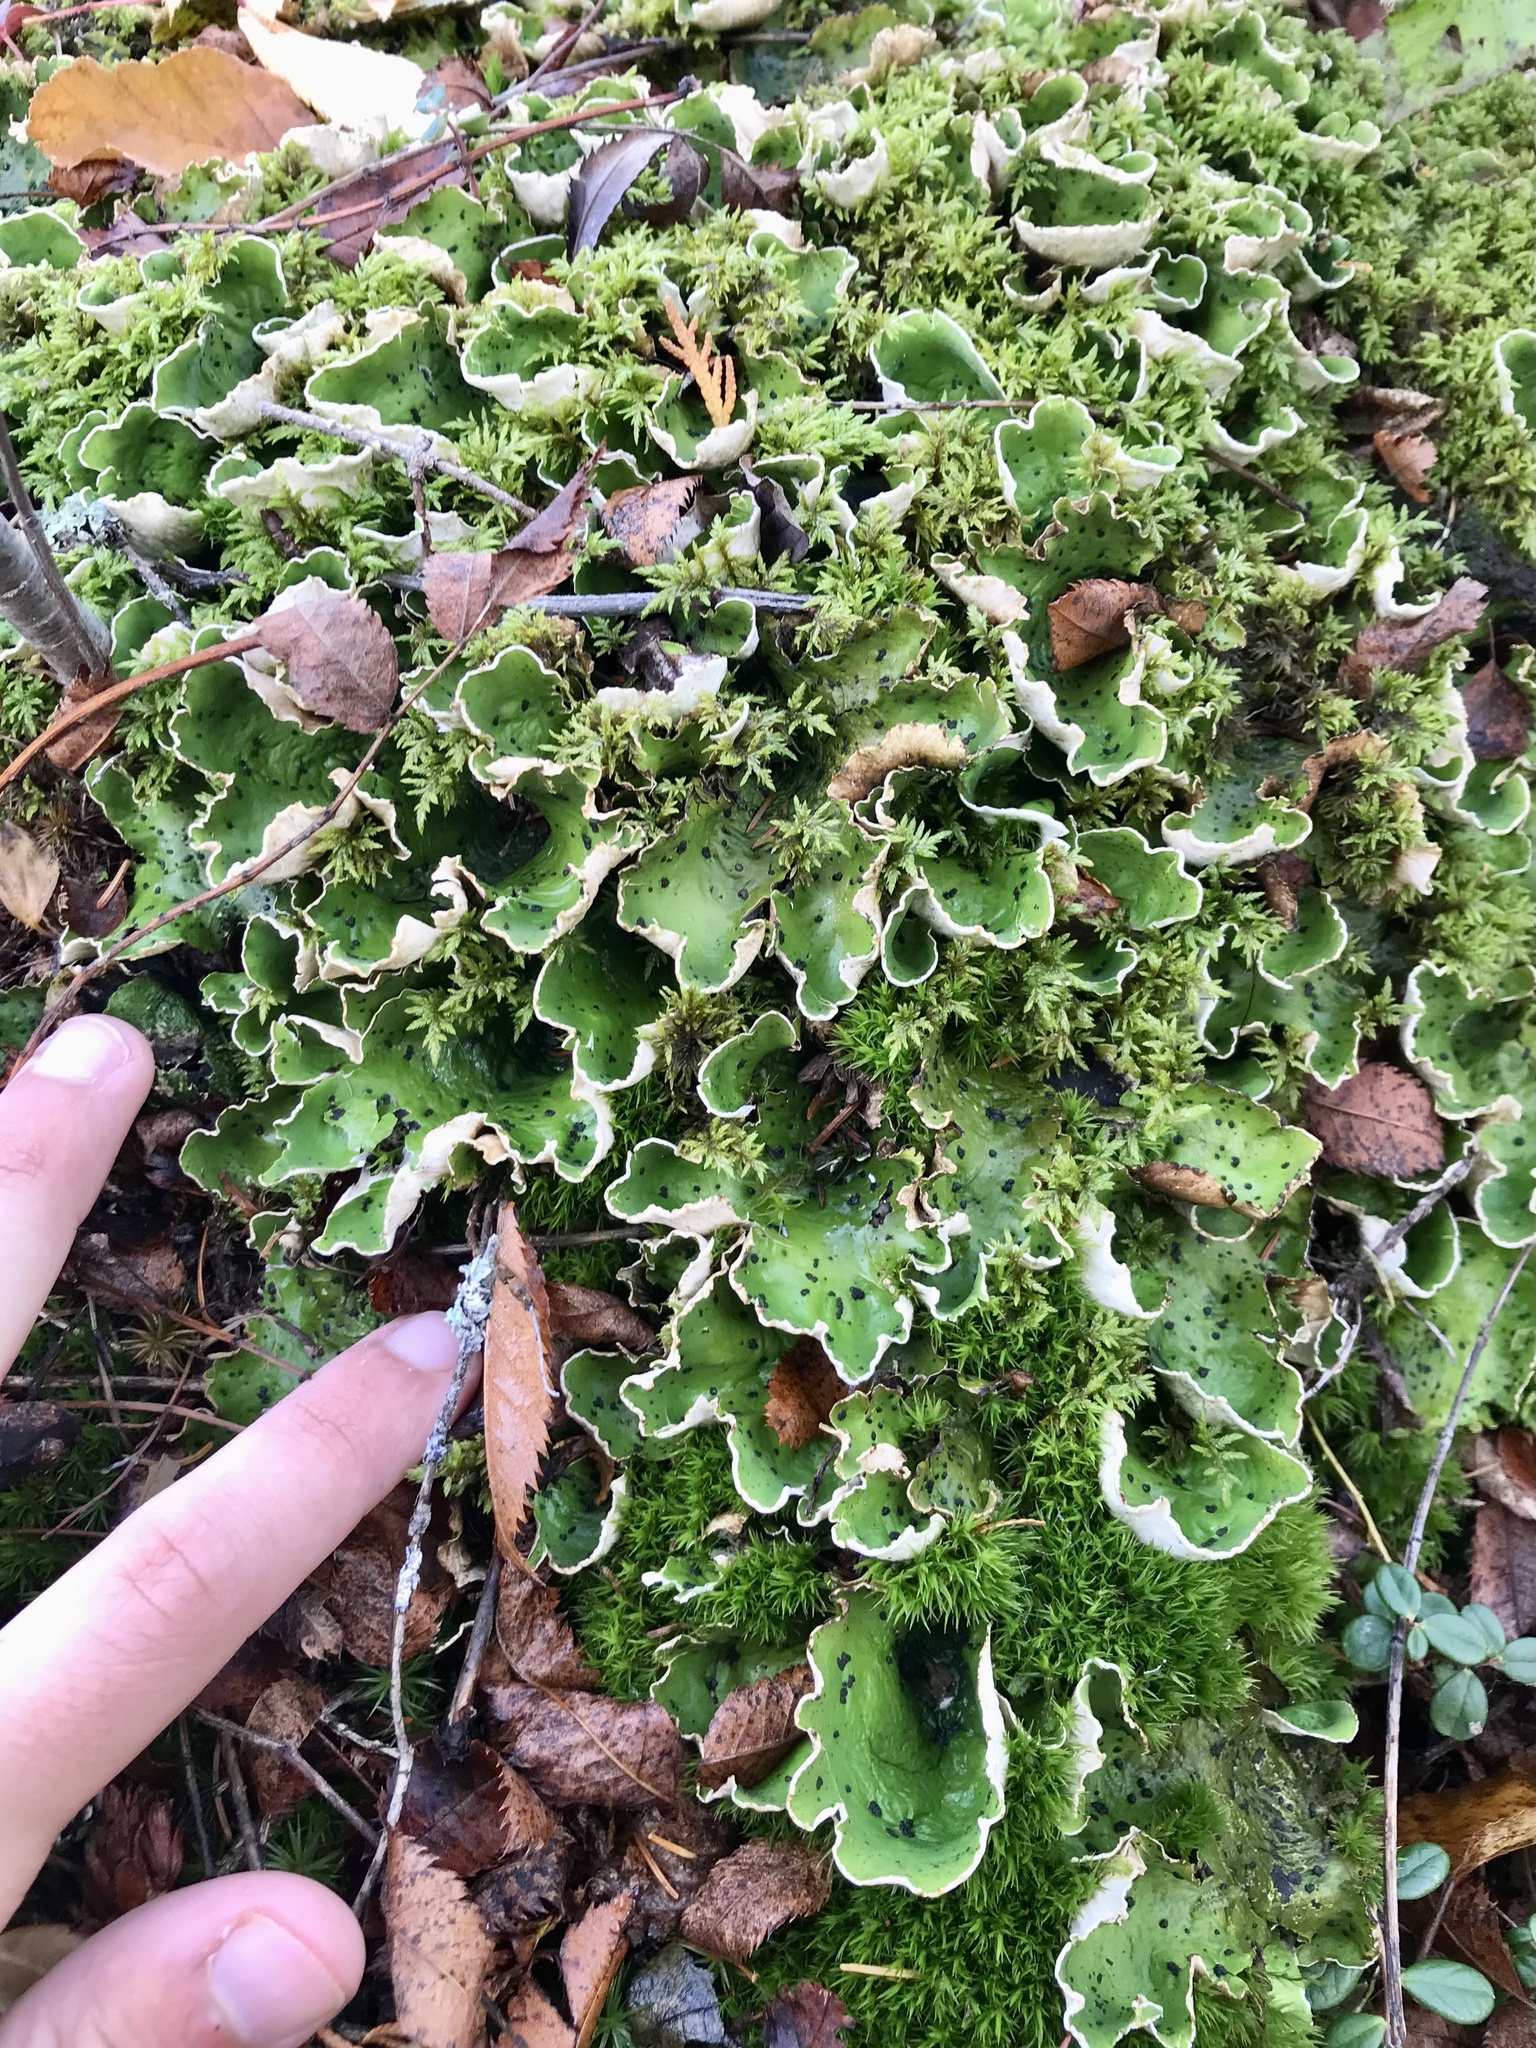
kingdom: Fungi
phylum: Ascomycota
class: Lecanoromycetes
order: Peltigerales
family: Peltigeraceae
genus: Peltigera
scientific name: Peltigera aphthosa
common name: Common freckle pelt lichen
